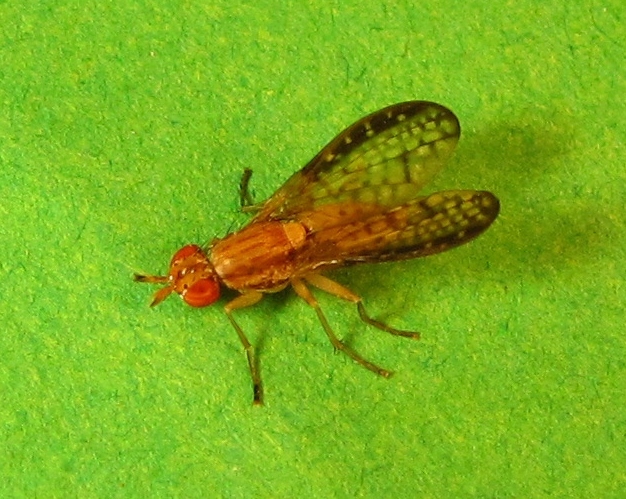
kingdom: Animalia
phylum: Arthropoda
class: Insecta
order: Diptera
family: Sciomyzidae
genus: Trypetoptera
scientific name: Trypetoptera canadensis
